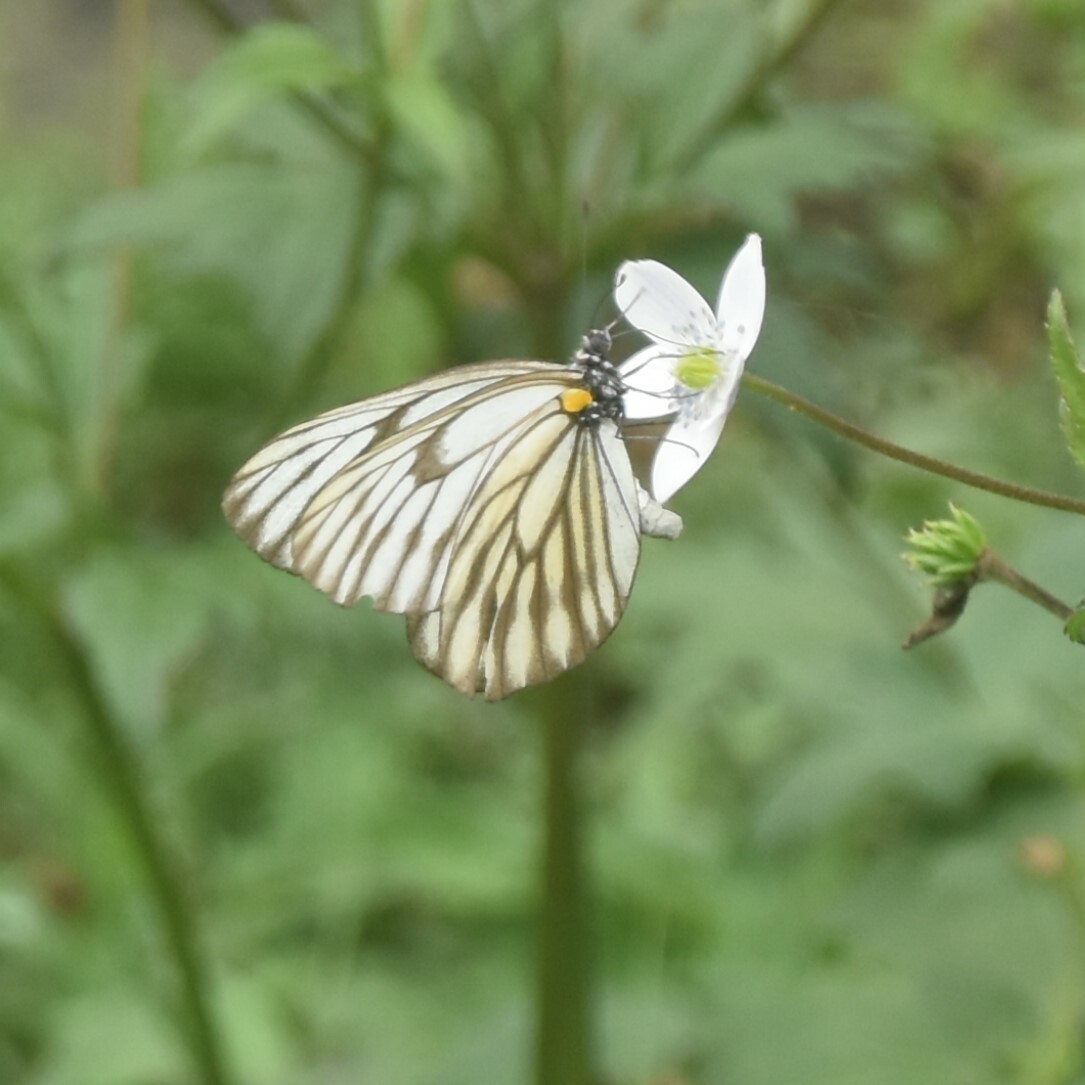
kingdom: Animalia
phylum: Arthropoda
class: Insecta
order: Lepidoptera
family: Pieridae
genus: Aporia
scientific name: Aporia agathon
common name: Great blackvein
